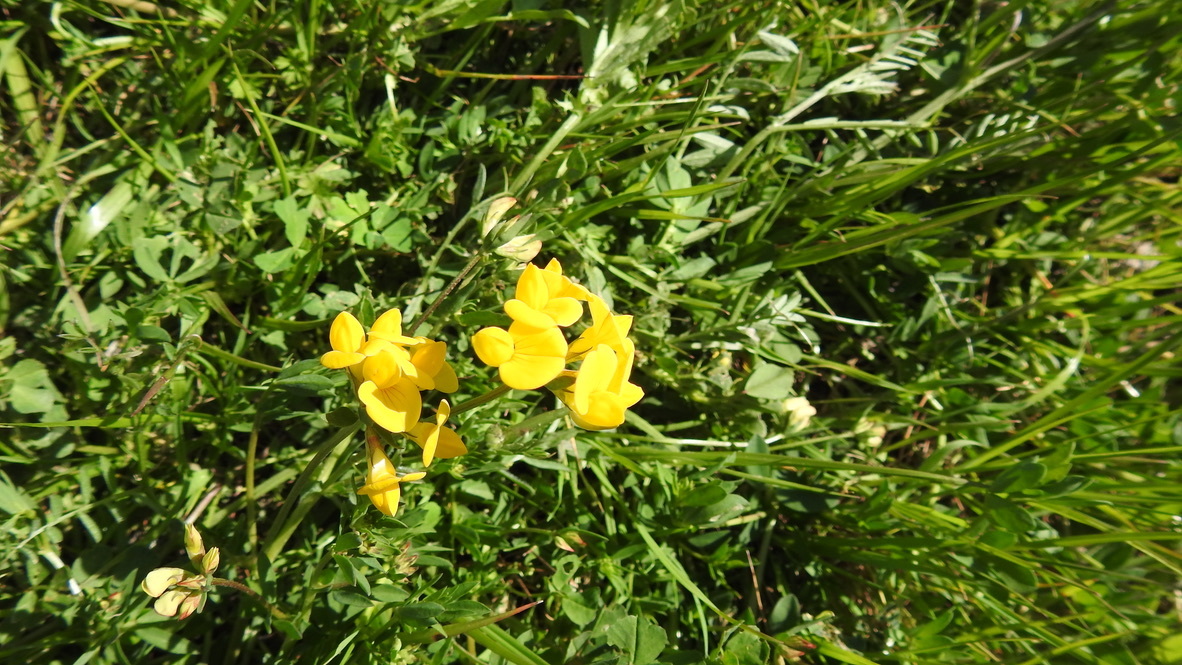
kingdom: Plantae
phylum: Tracheophyta
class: Magnoliopsida
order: Fabales
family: Fabaceae
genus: Lotus
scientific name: Lotus corniculatus
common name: Common bird's-foot-trefoil
